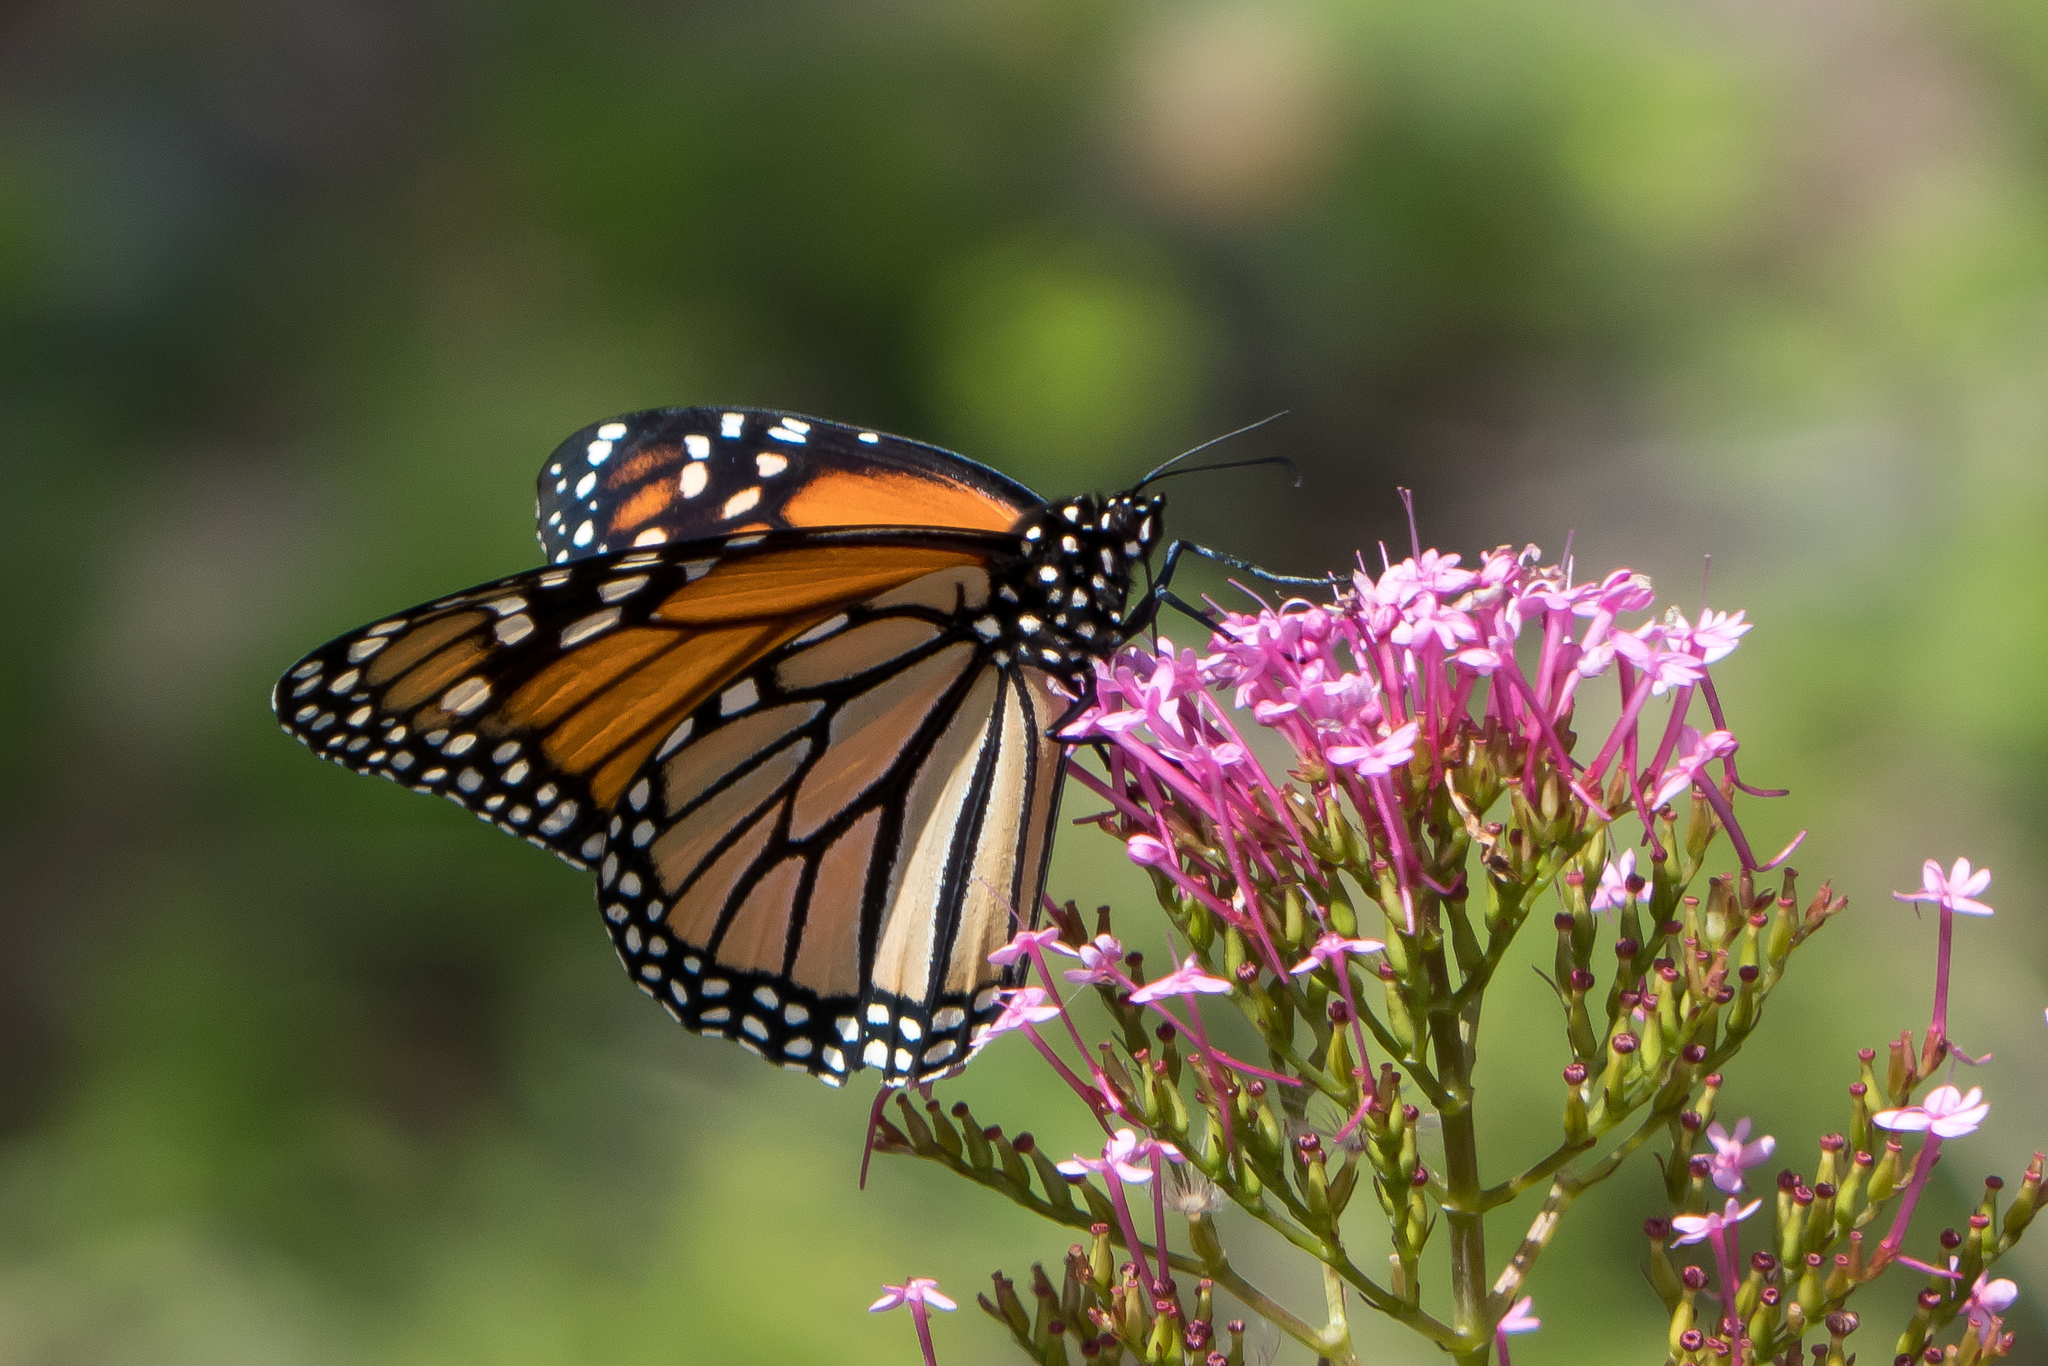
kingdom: Animalia
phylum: Arthropoda
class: Insecta
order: Lepidoptera
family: Nymphalidae
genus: Danaus
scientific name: Danaus plexippus
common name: Monarch
